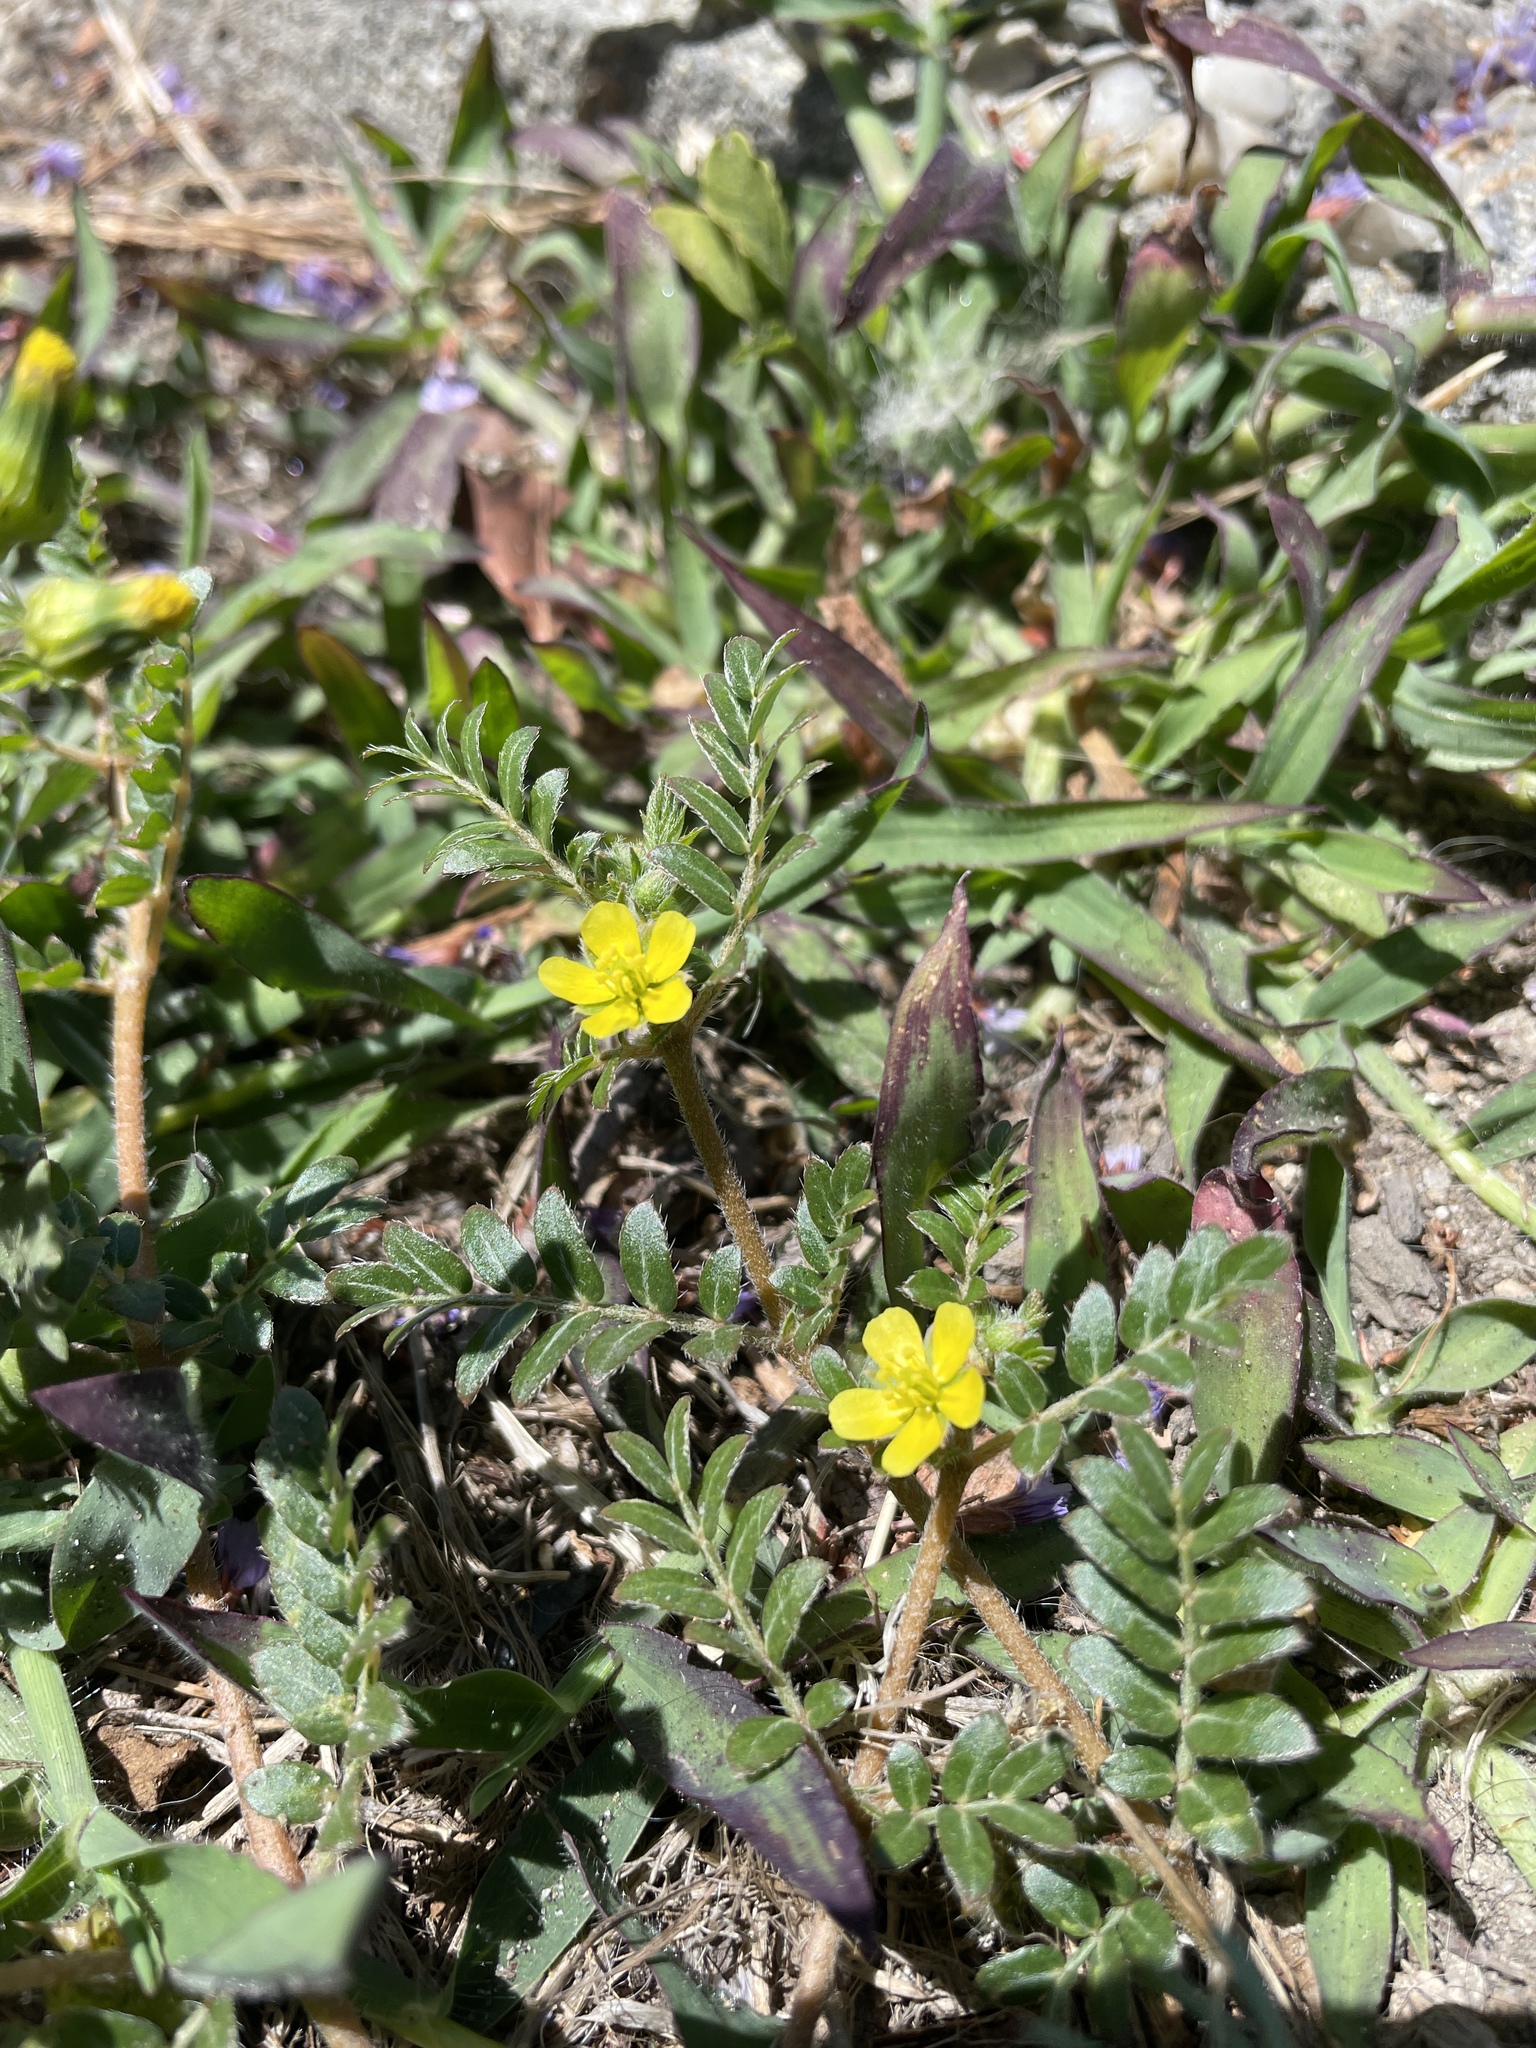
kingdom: Plantae
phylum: Tracheophyta
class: Magnoliopsida
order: Zygophyllales
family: Zygophyllaceae
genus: Tribulus
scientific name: Tribulus terrestris
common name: Puncturevine
